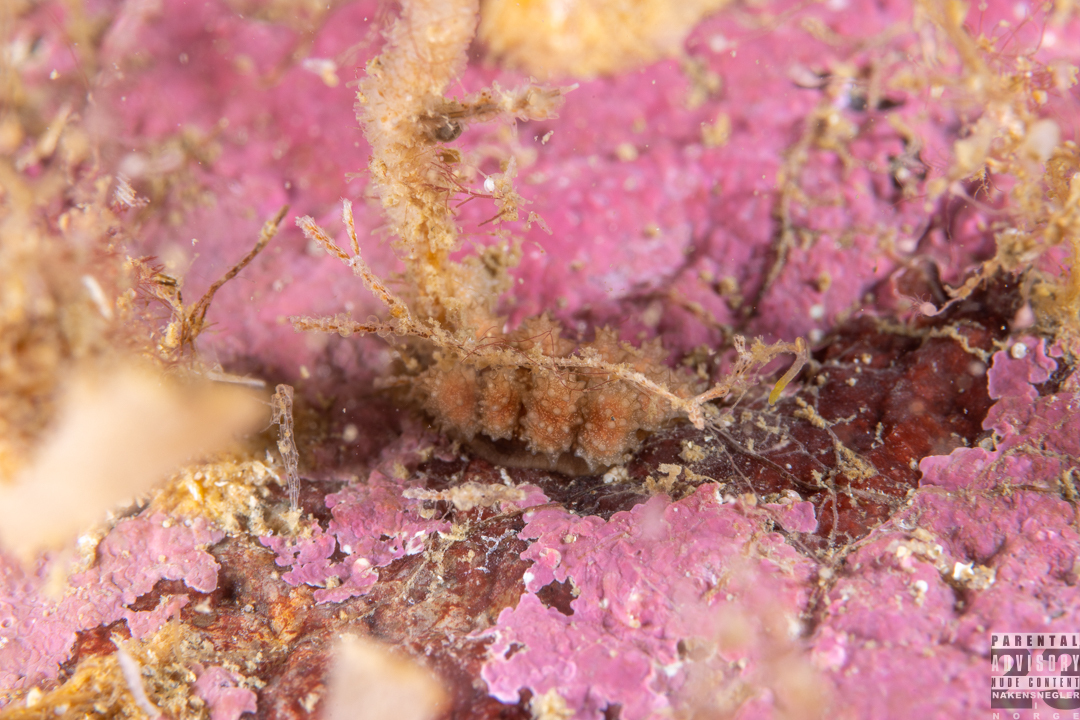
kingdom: Animalia
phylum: Mollusca
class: Gastropoda
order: Nudibranchia
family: Dotidae
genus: Doto
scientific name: Doto hystrix
